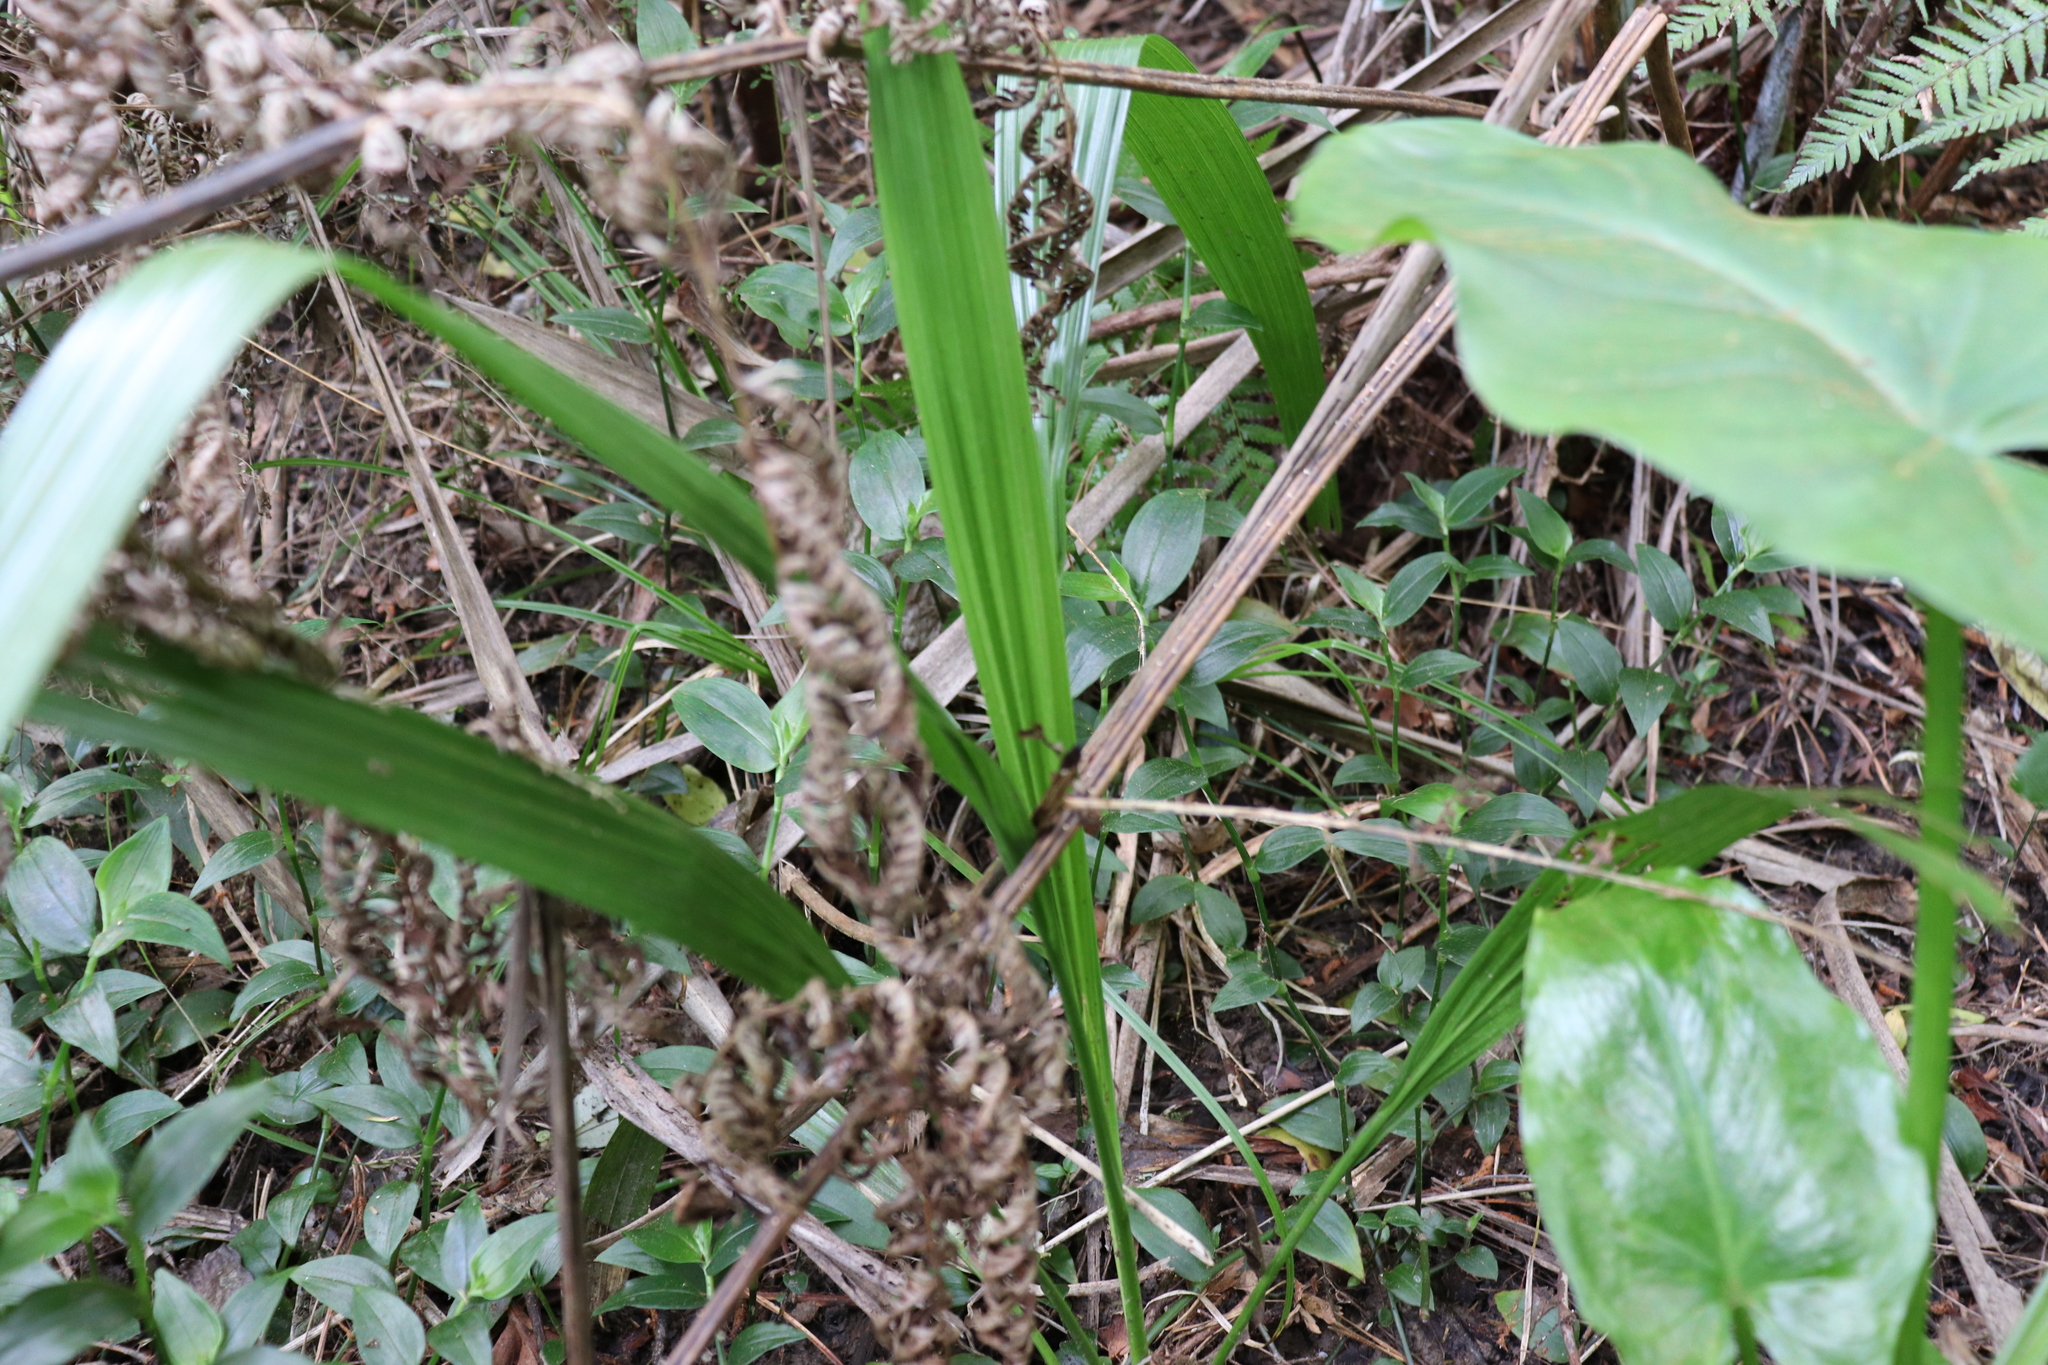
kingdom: Plantae
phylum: Tracheophyta
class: Liliopsida
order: Arecales
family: Arecaceae
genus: Phoenix
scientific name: Phoenix canariensis
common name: Canary island date palm
